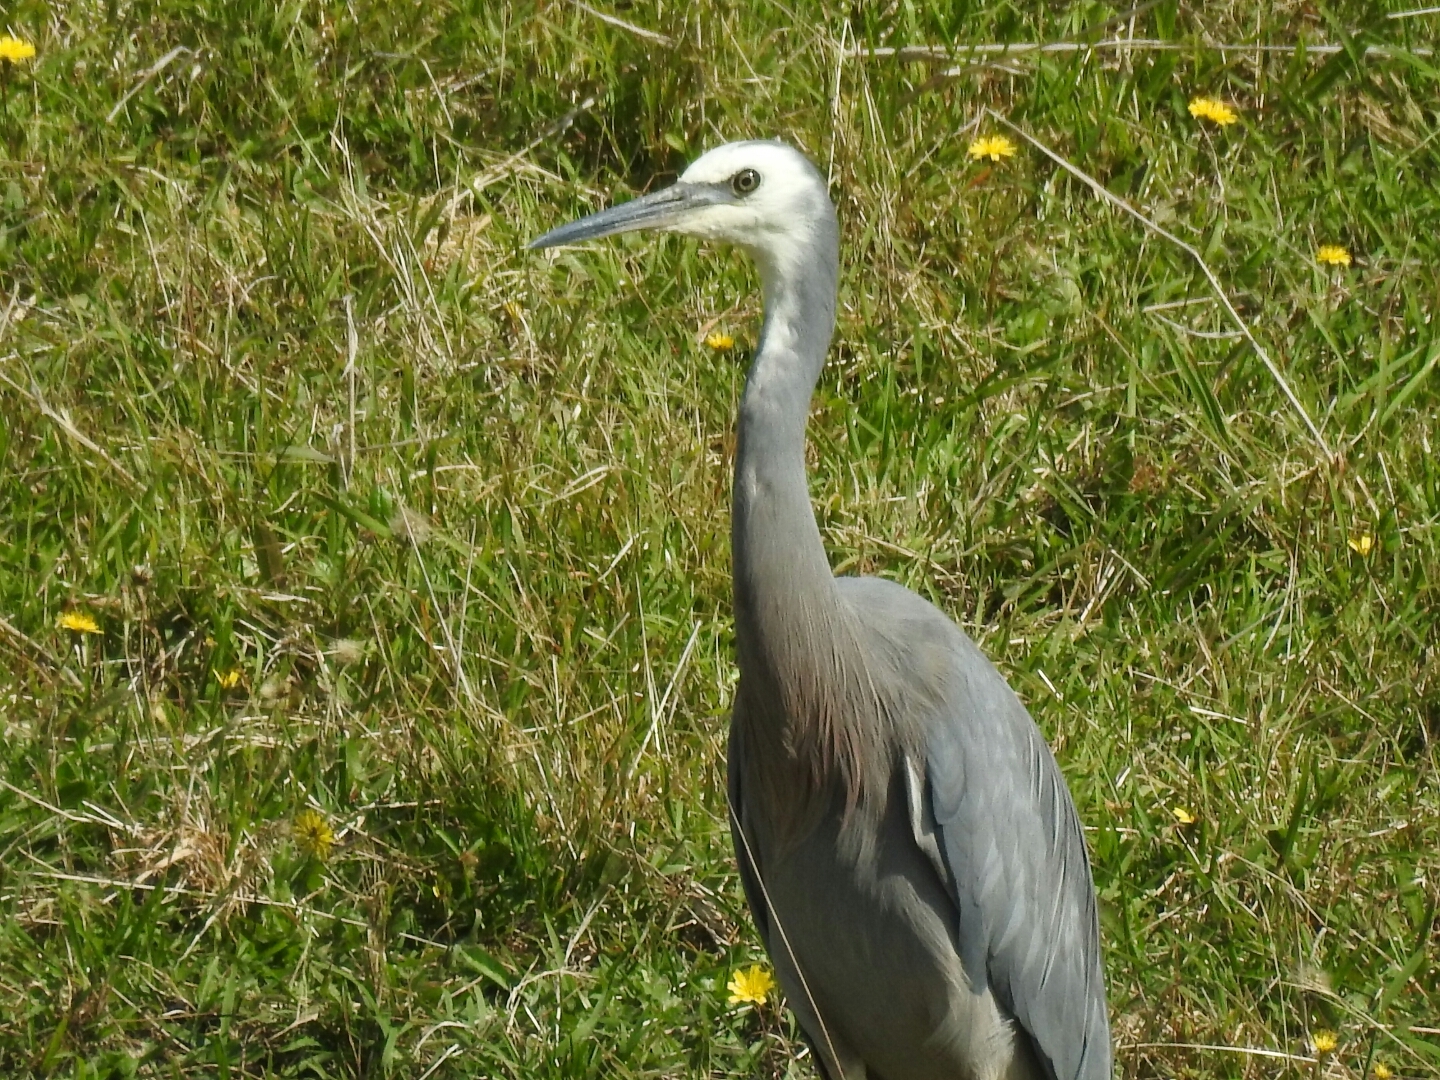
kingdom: Animalia
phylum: Chordata
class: Aves
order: Pelecaniformes
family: Ardeidae
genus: Egretta
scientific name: Egretta novaehollandiae
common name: White-faced heron
